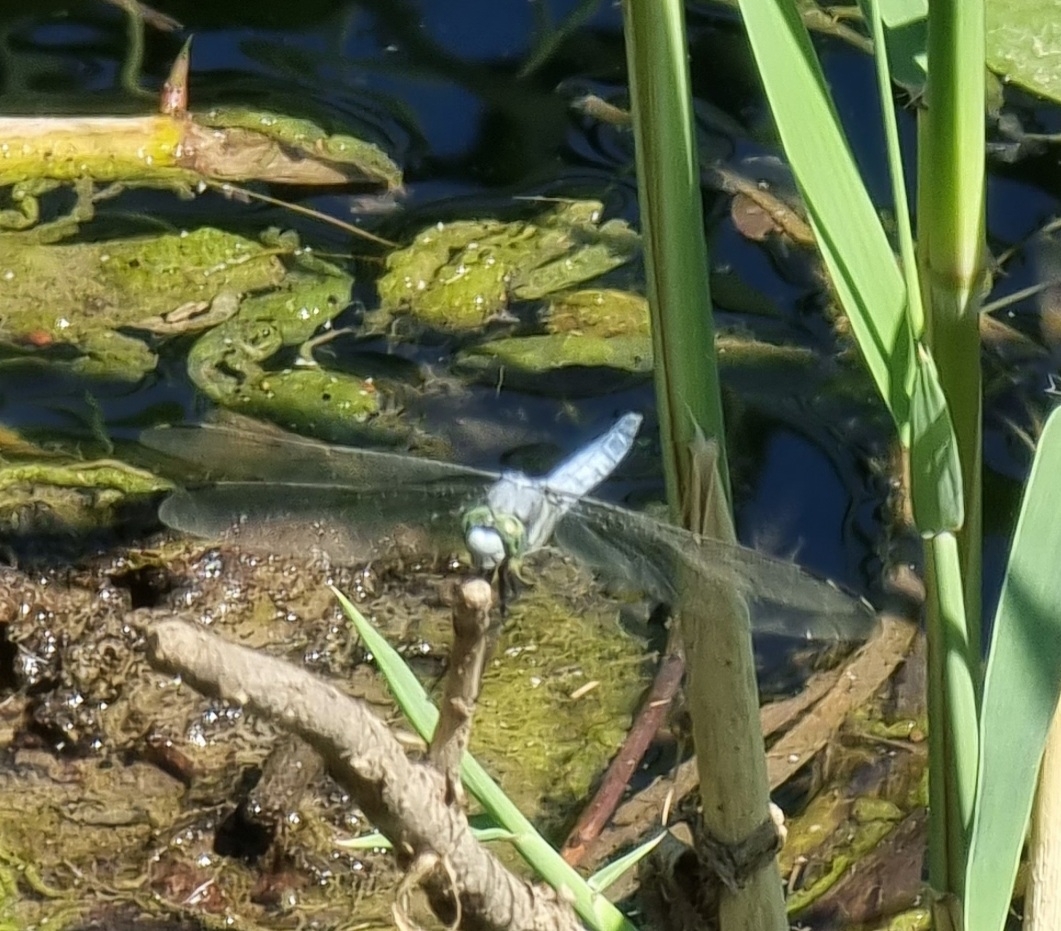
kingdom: Animalia
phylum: Arthropoda
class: Insecta
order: Odonata
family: Libellulidae
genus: Orthetrum
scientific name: Orthetrum cancellatum
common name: Black-tailed skimmer
